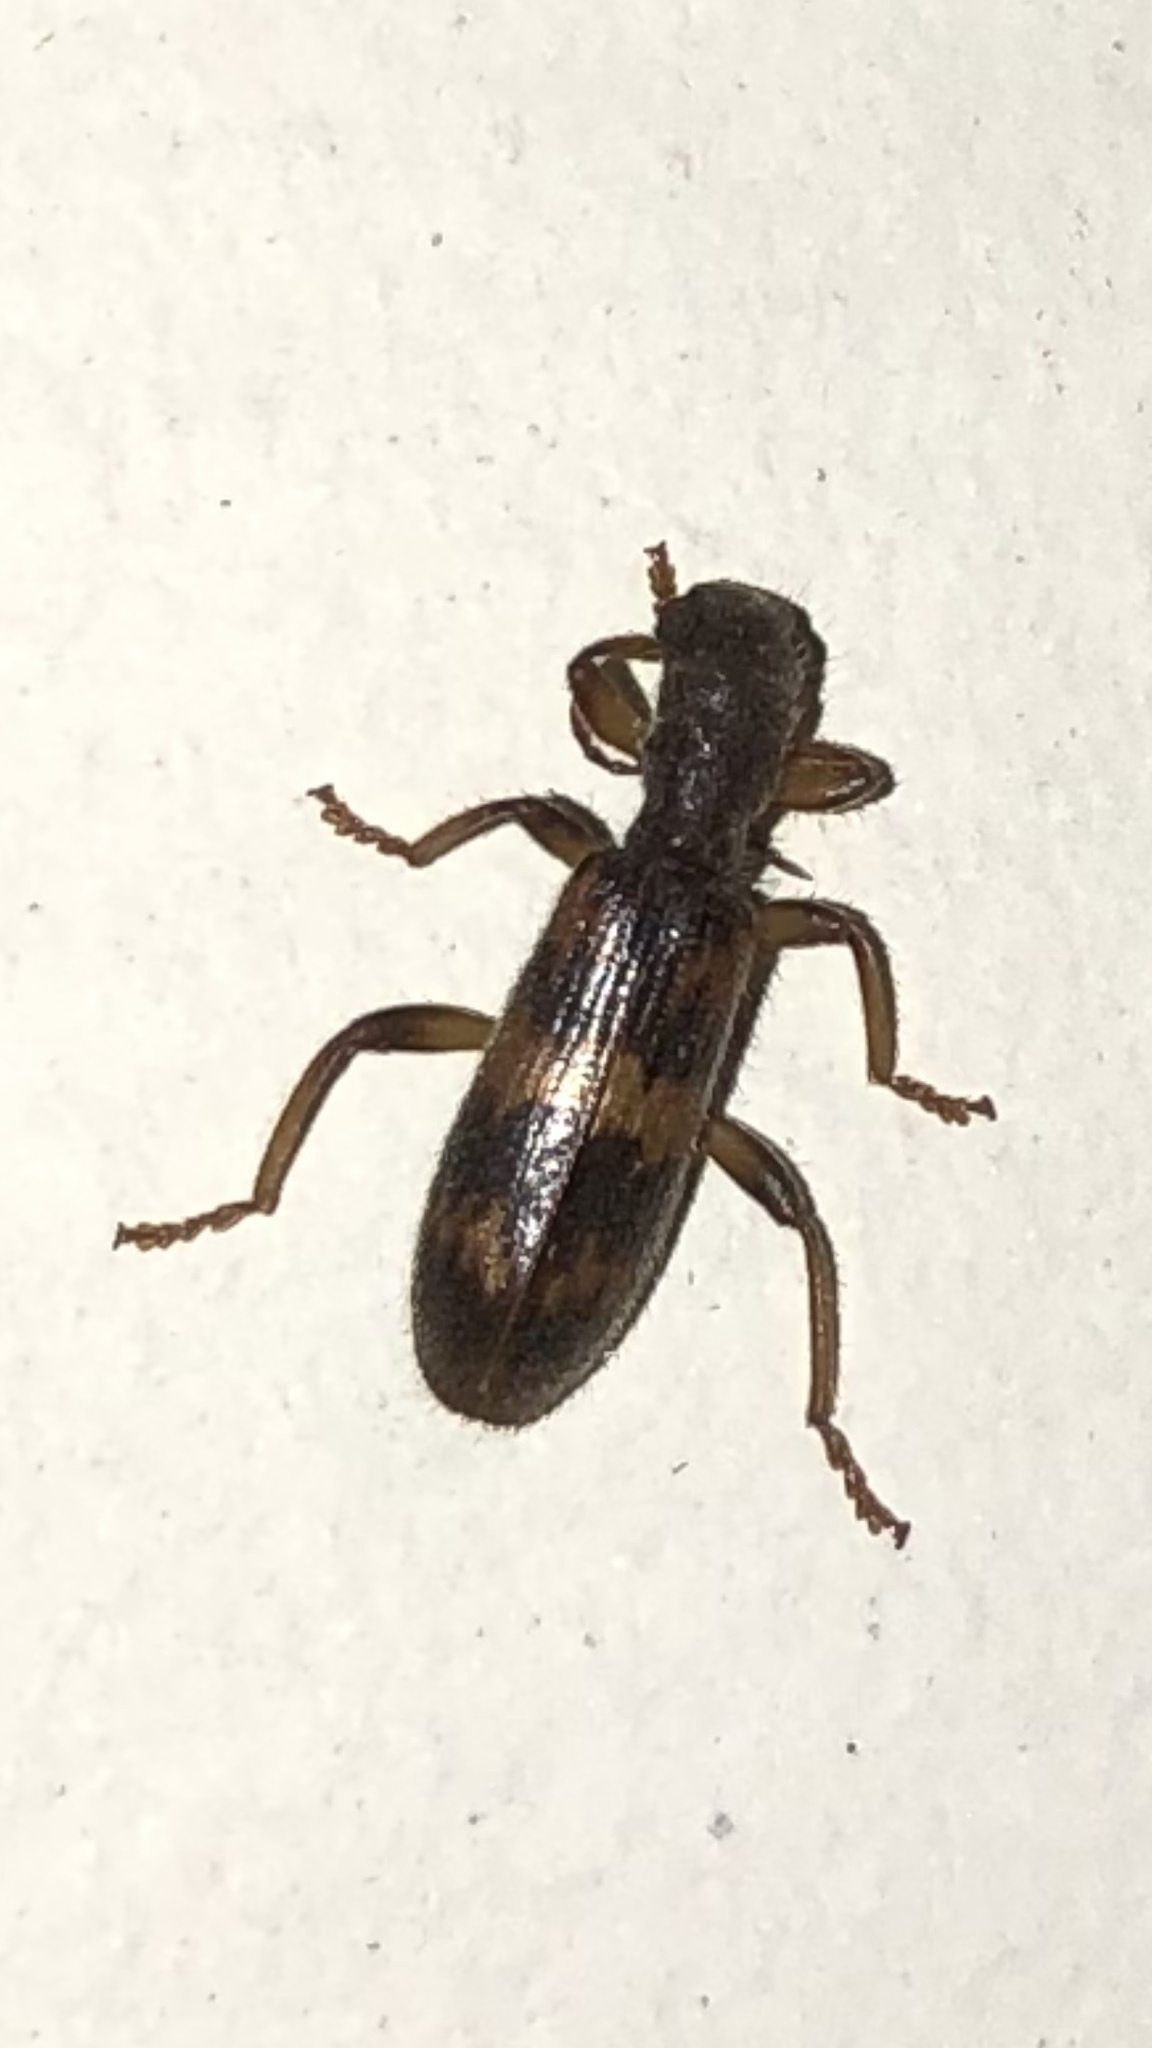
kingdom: Animalia
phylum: Arthropoda
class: Insecta
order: Coleoptera
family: Cleridae
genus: Cymatodera
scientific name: Cymatodera undulata
